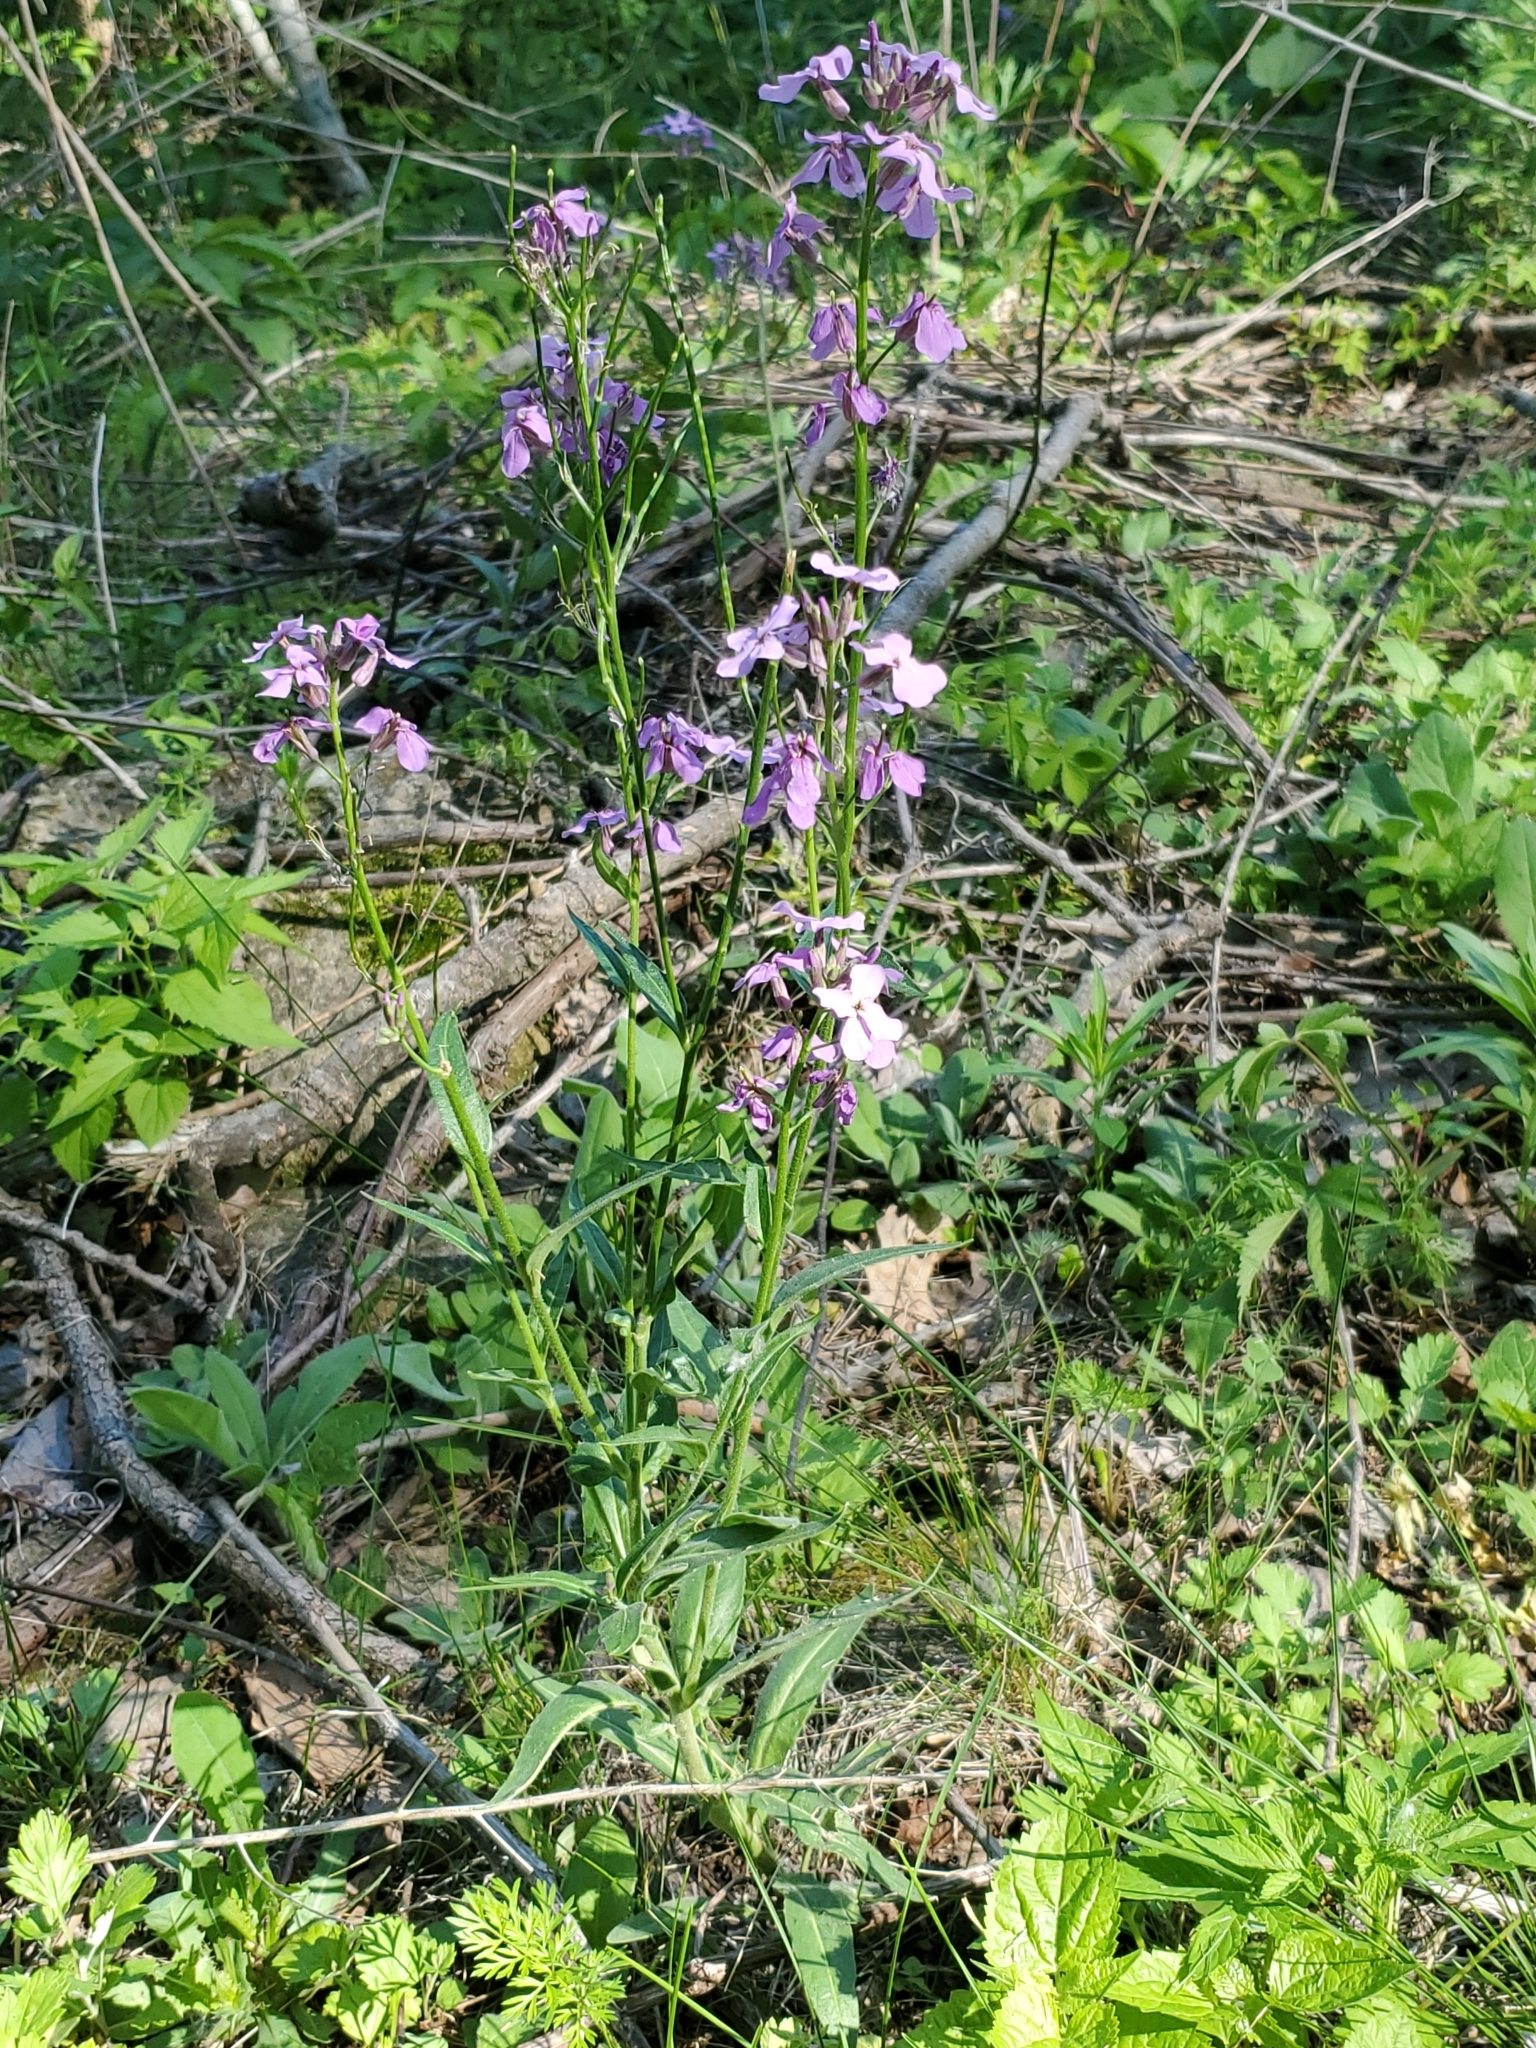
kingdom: Plantae
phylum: Tracheophyta
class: Magnoliopsida
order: Brassicales
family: Brassicaceae
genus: Hesperis
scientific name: Hesperis matronalis
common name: Dame's-violet
